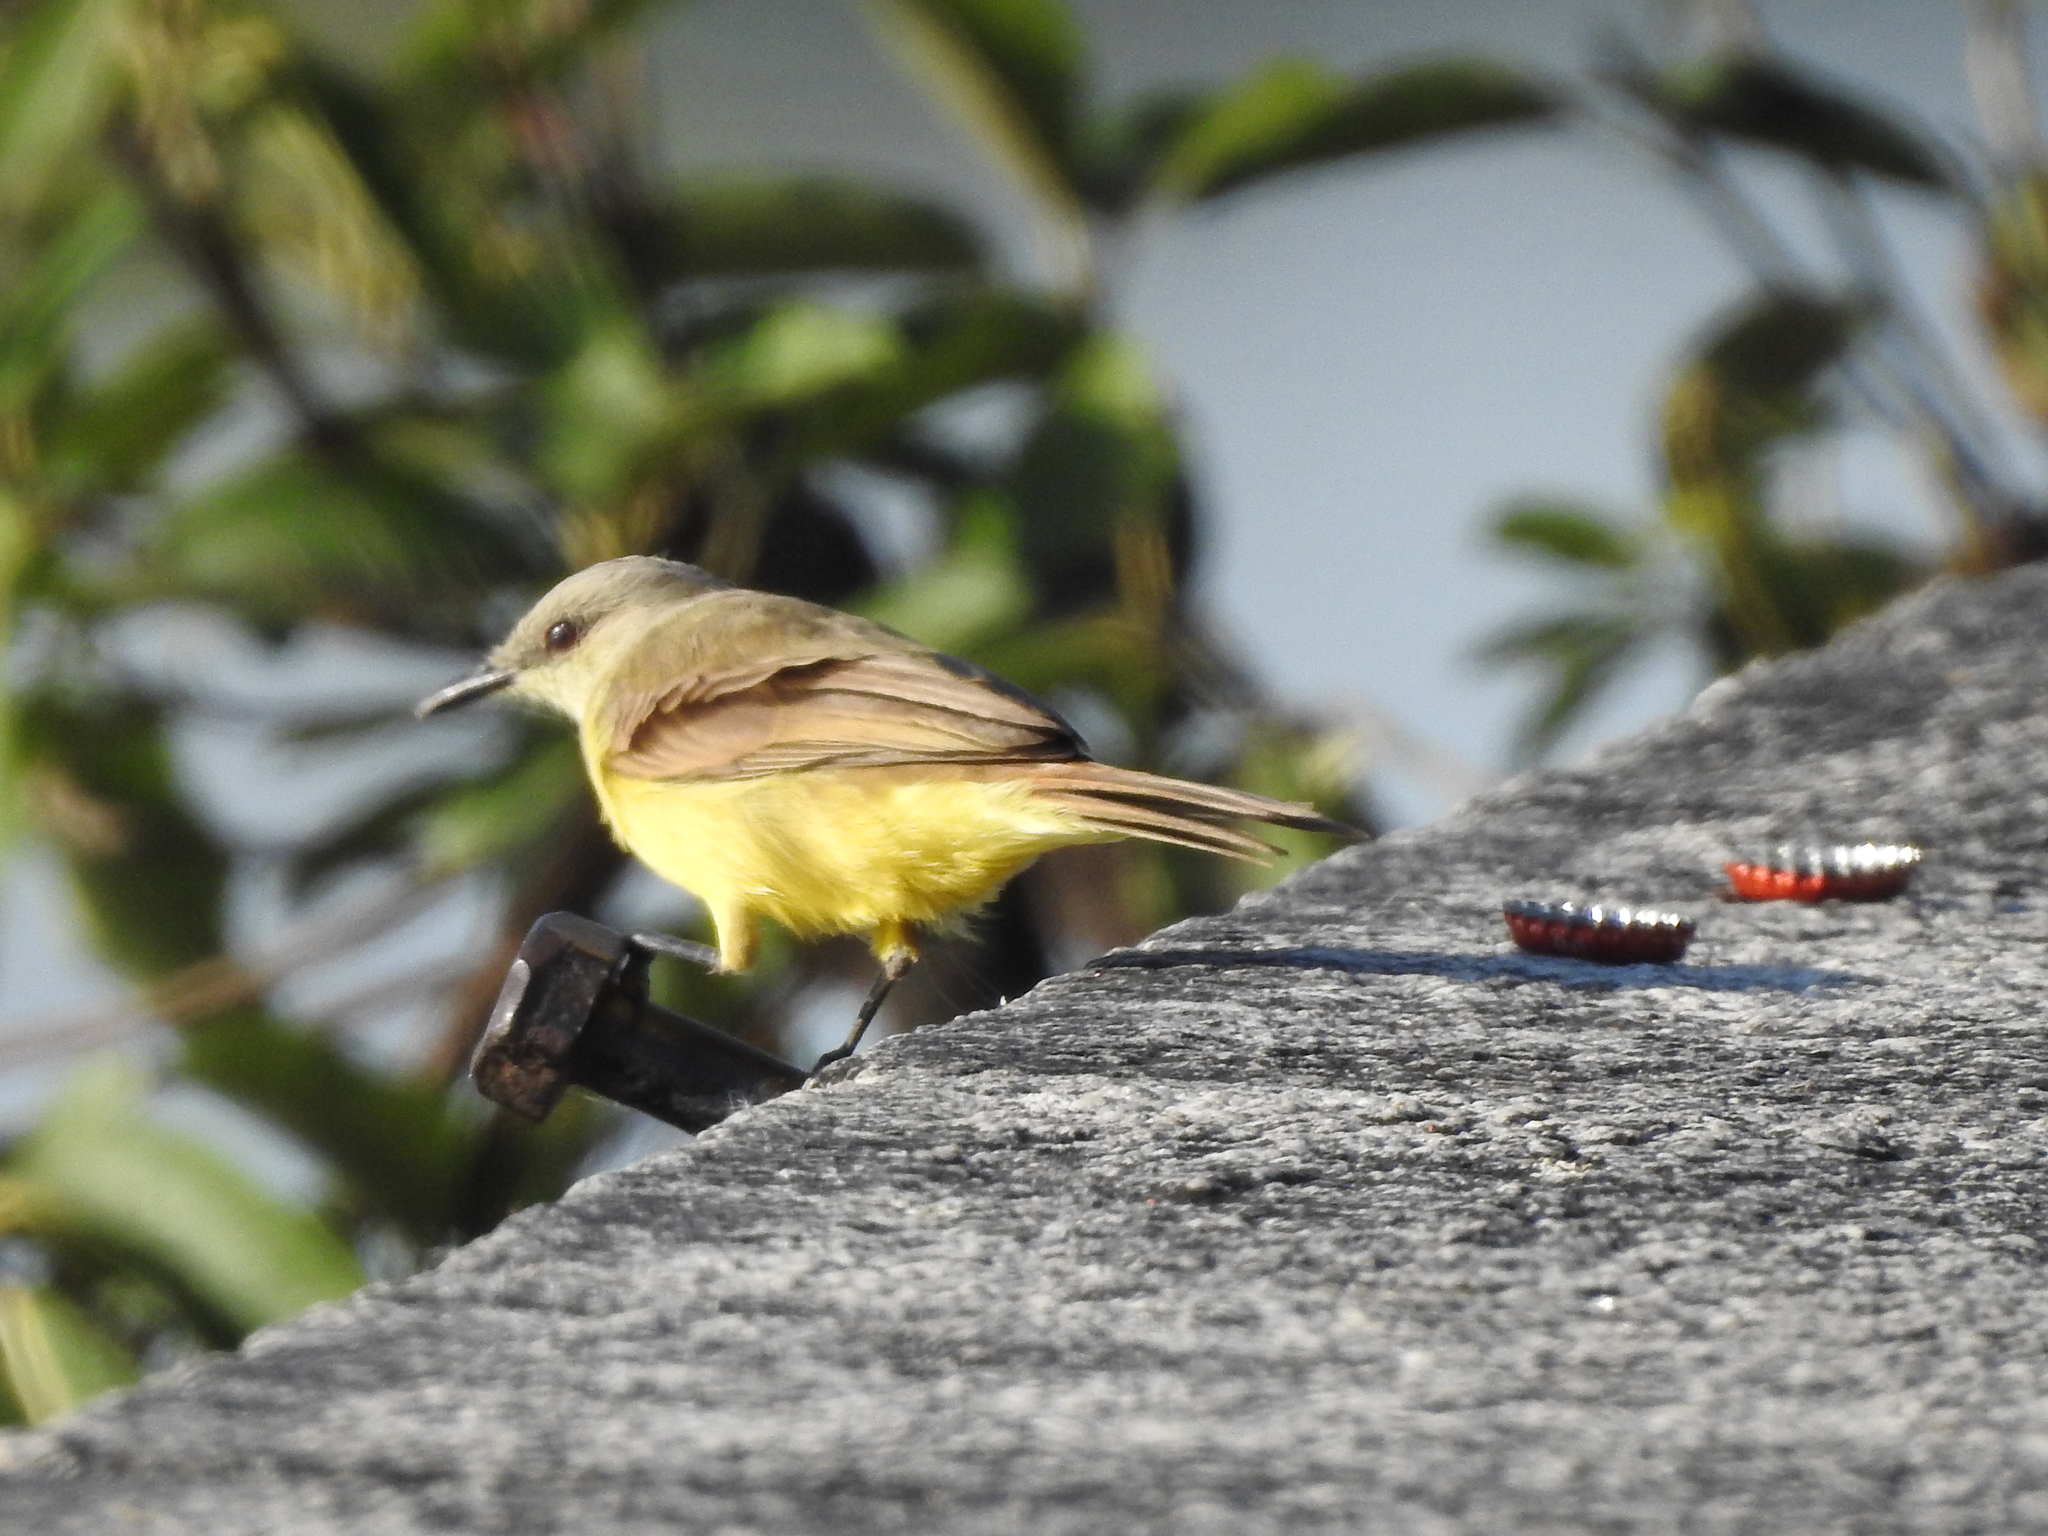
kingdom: Animalia
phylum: Chordata
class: Aves
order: Passeriformes
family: Tyrannidae
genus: Machetornis
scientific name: Machetornis rixosa
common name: Cattle tyrant
